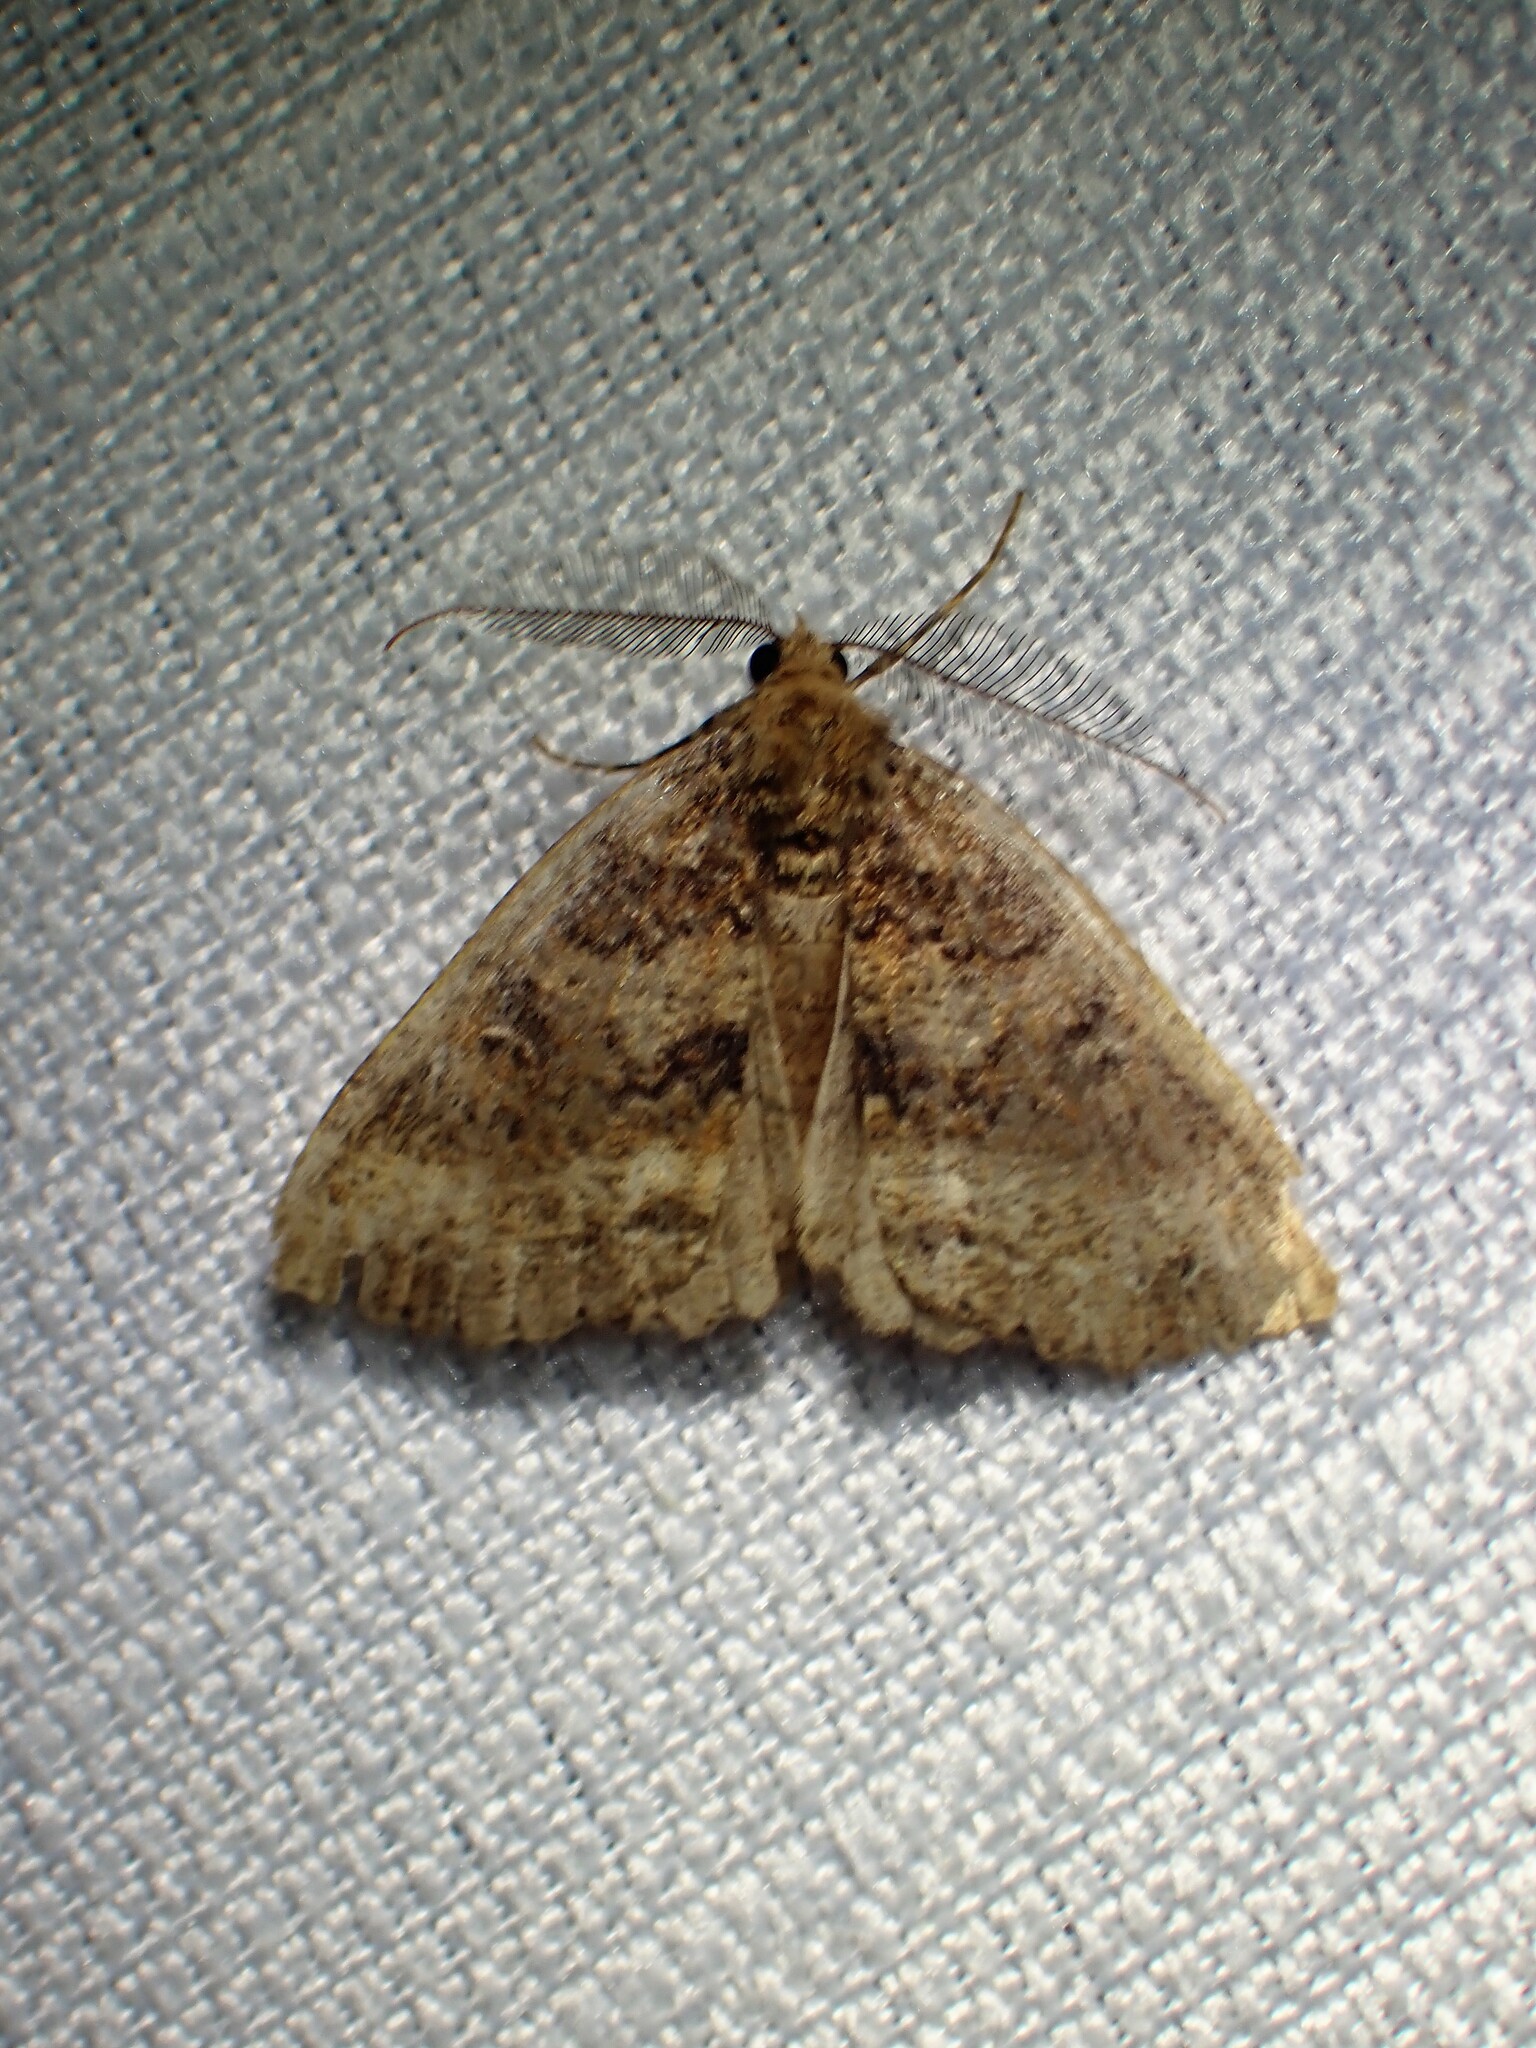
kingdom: Animalia
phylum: Arthropoda
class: Insecta
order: Lepidoptera
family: Geometridae
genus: Ascotis
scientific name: Ascotis fortunata
